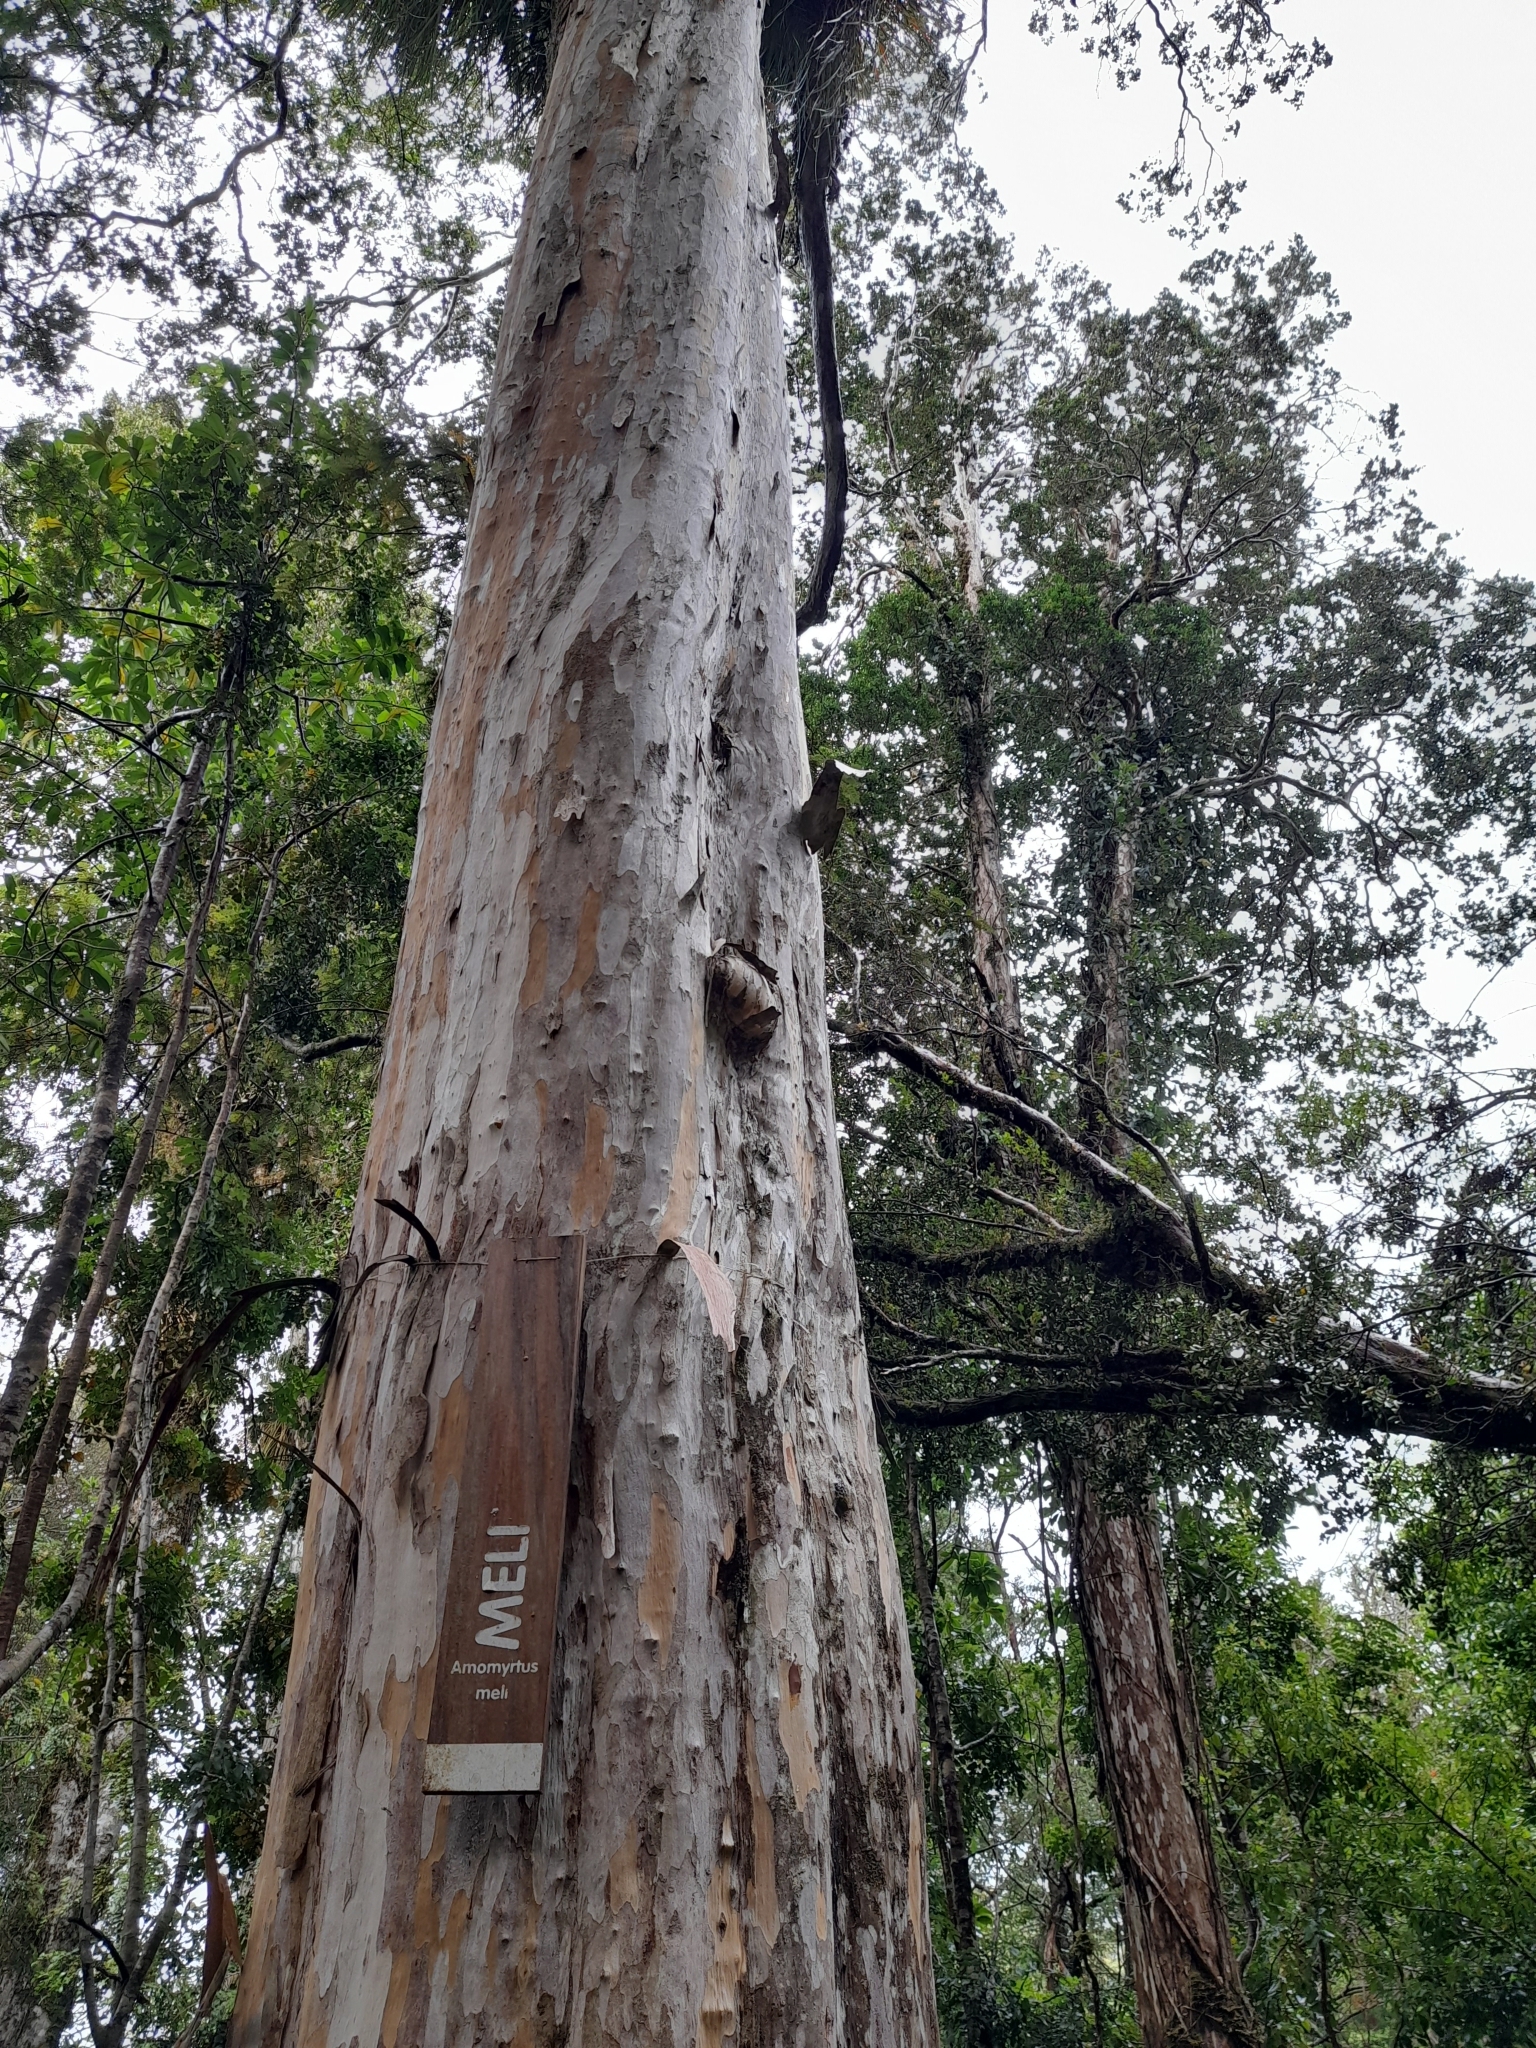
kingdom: Plantae
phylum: Tracheophyta
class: Magnoliopsida
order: Myrtales
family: Myrtaceae
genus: Amomyrtus
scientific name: Amomyrtus meli
